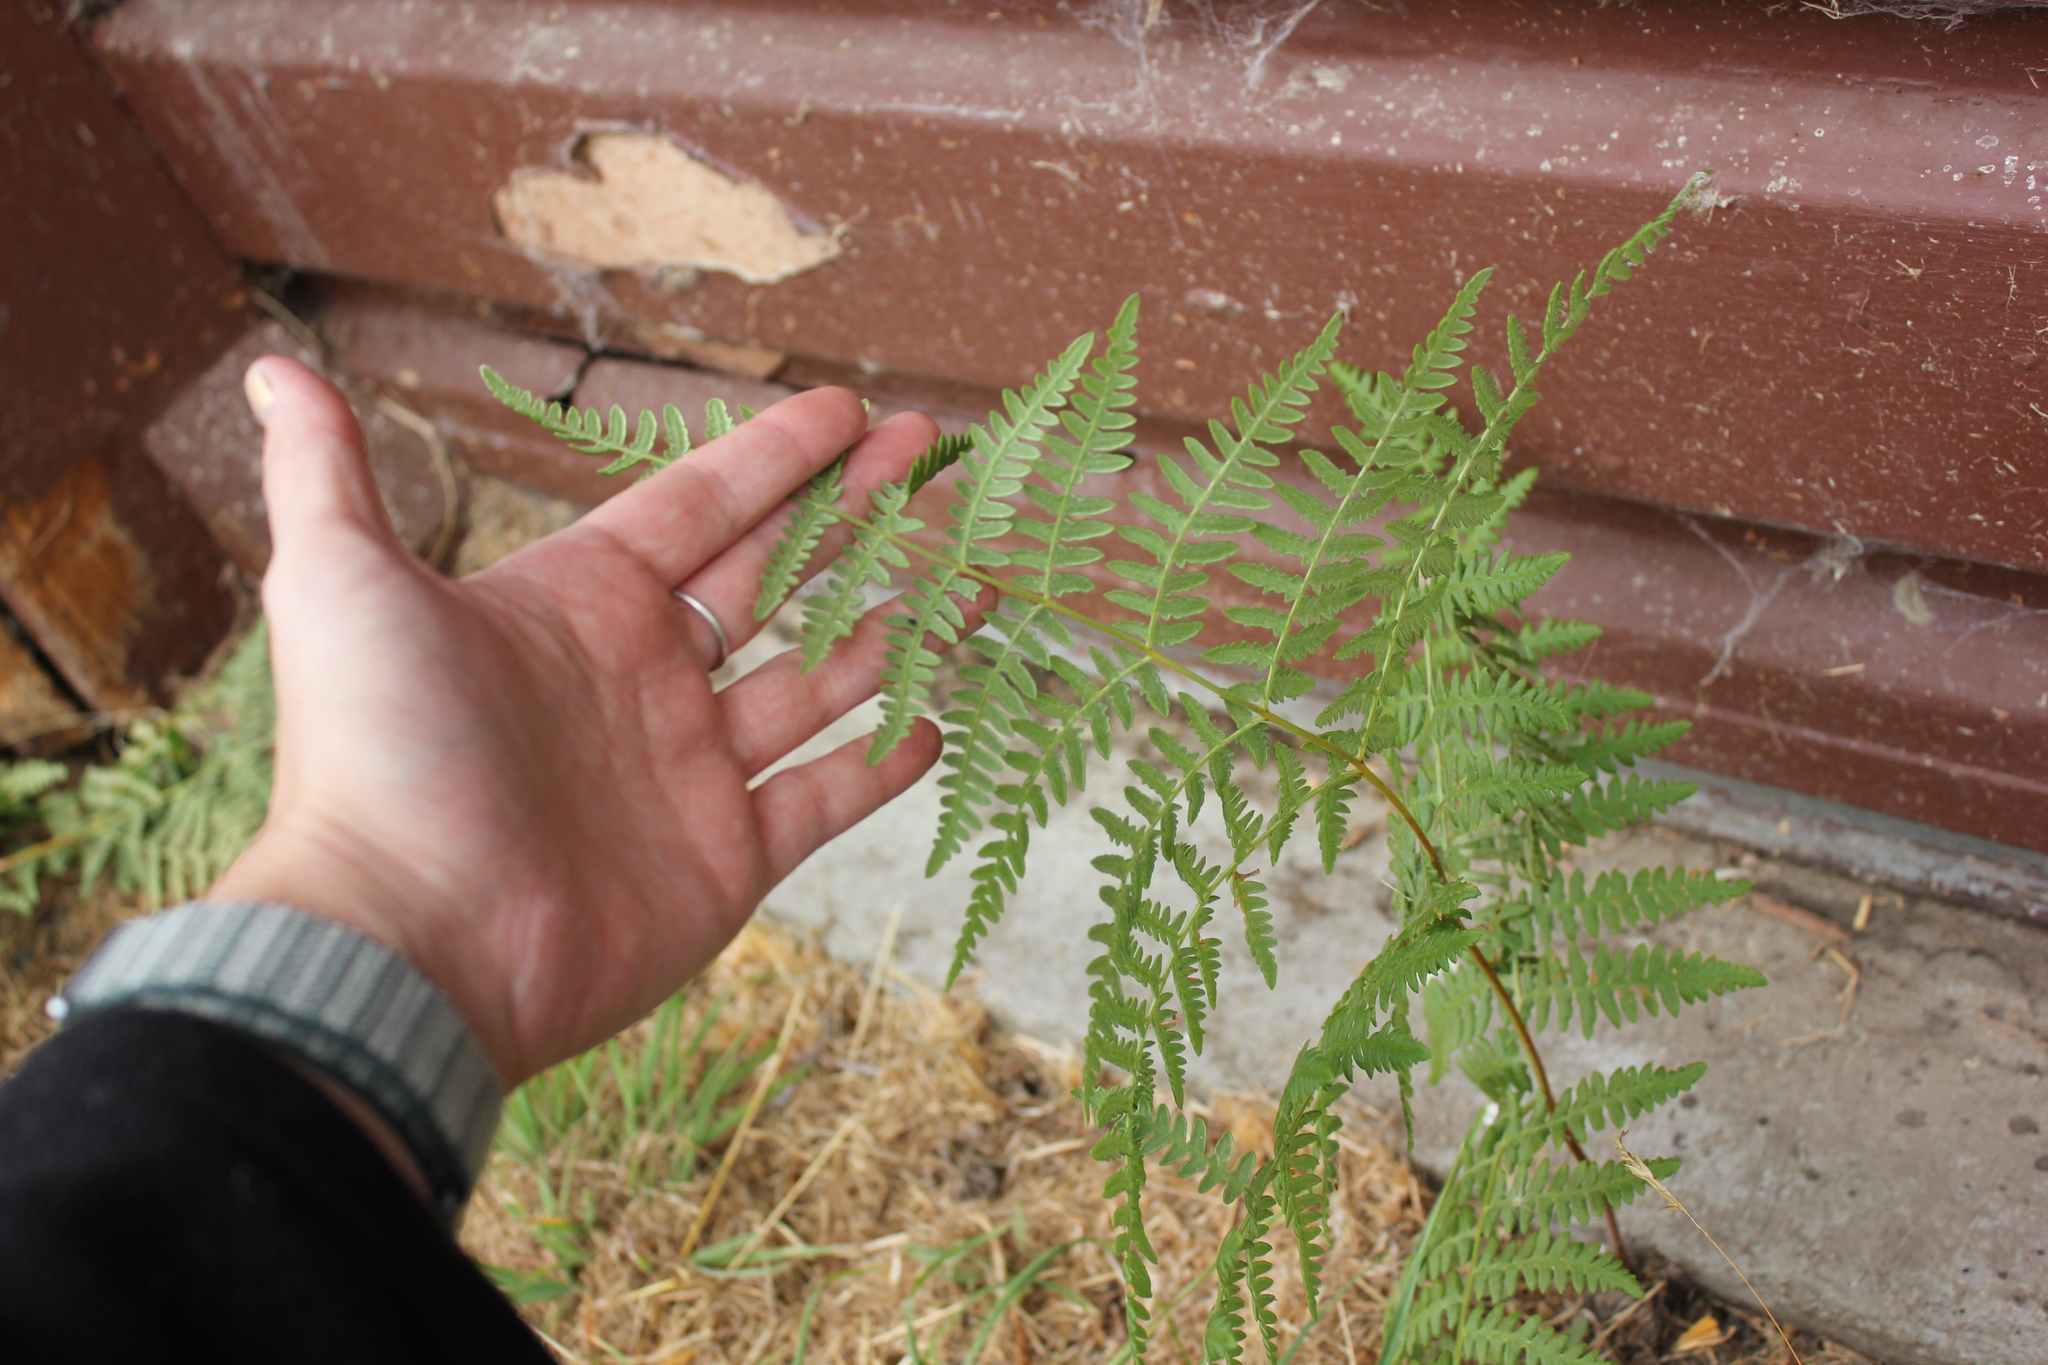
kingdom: Plantae
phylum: Tracheophyta
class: Polypodiopsida
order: Polypodiales
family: Dennstaedtiaceae
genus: Pteridium
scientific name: Pteridium aquilinum
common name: Bracken
